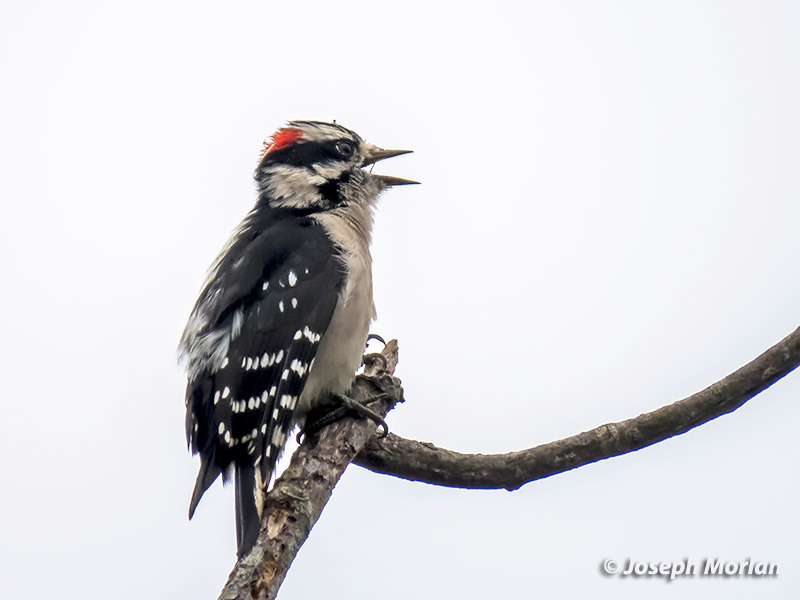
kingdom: Animalia
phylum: Chordata
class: Aves
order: Piciformes
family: Picidae
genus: Dryobates
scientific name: Dryobates pubescens
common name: Downy woodpecker
